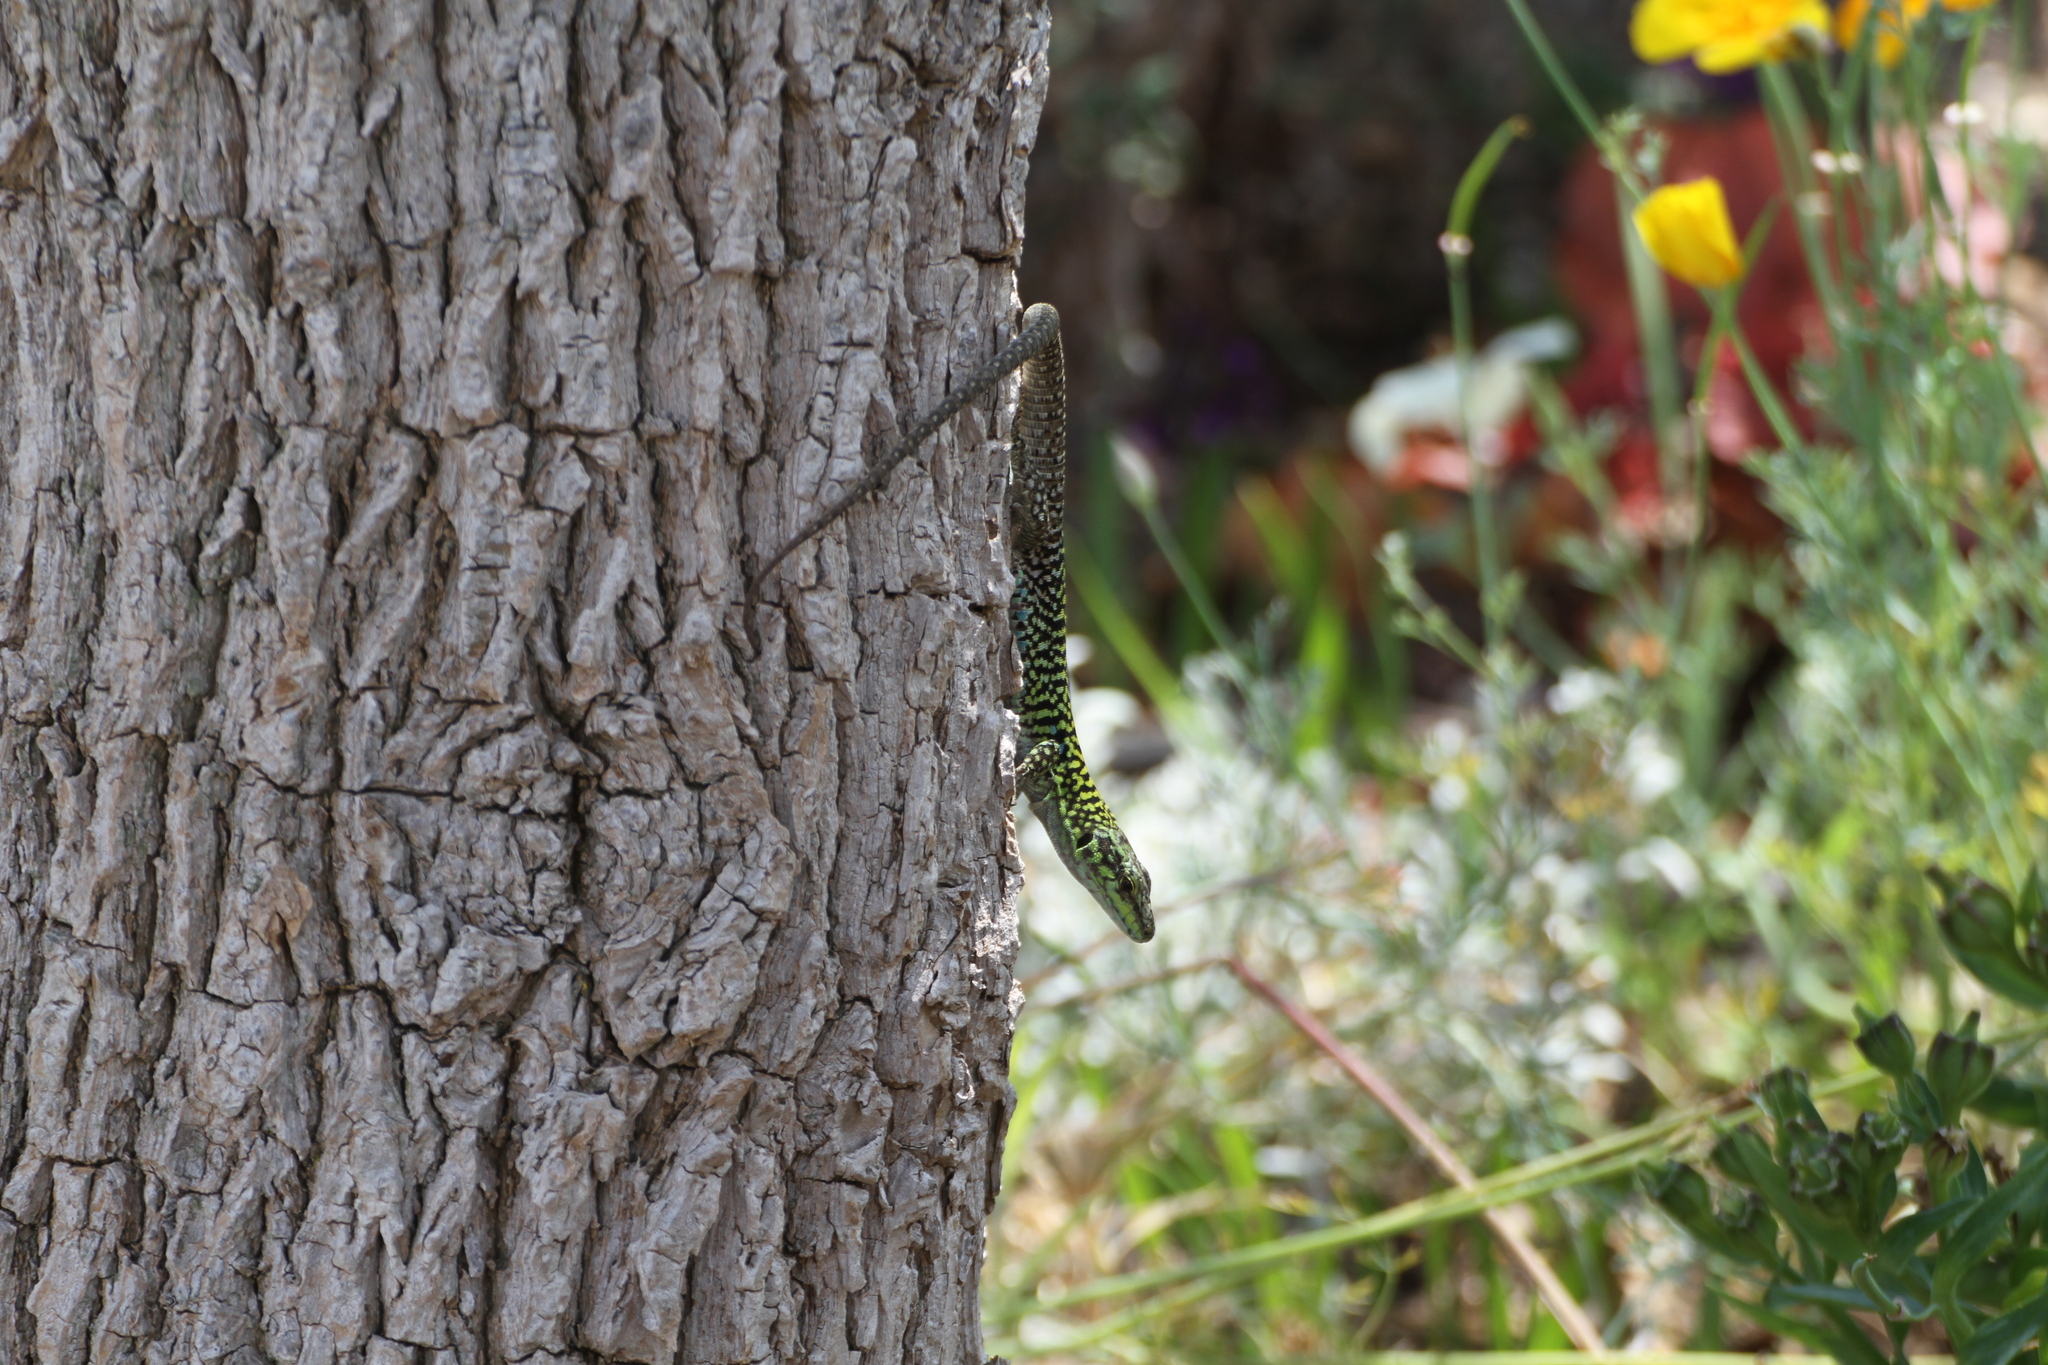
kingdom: Animalia
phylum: Chordata
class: Squamata
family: Lacertidae
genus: Podarcis
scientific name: Podarcis siculus
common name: Italian wall lizard
